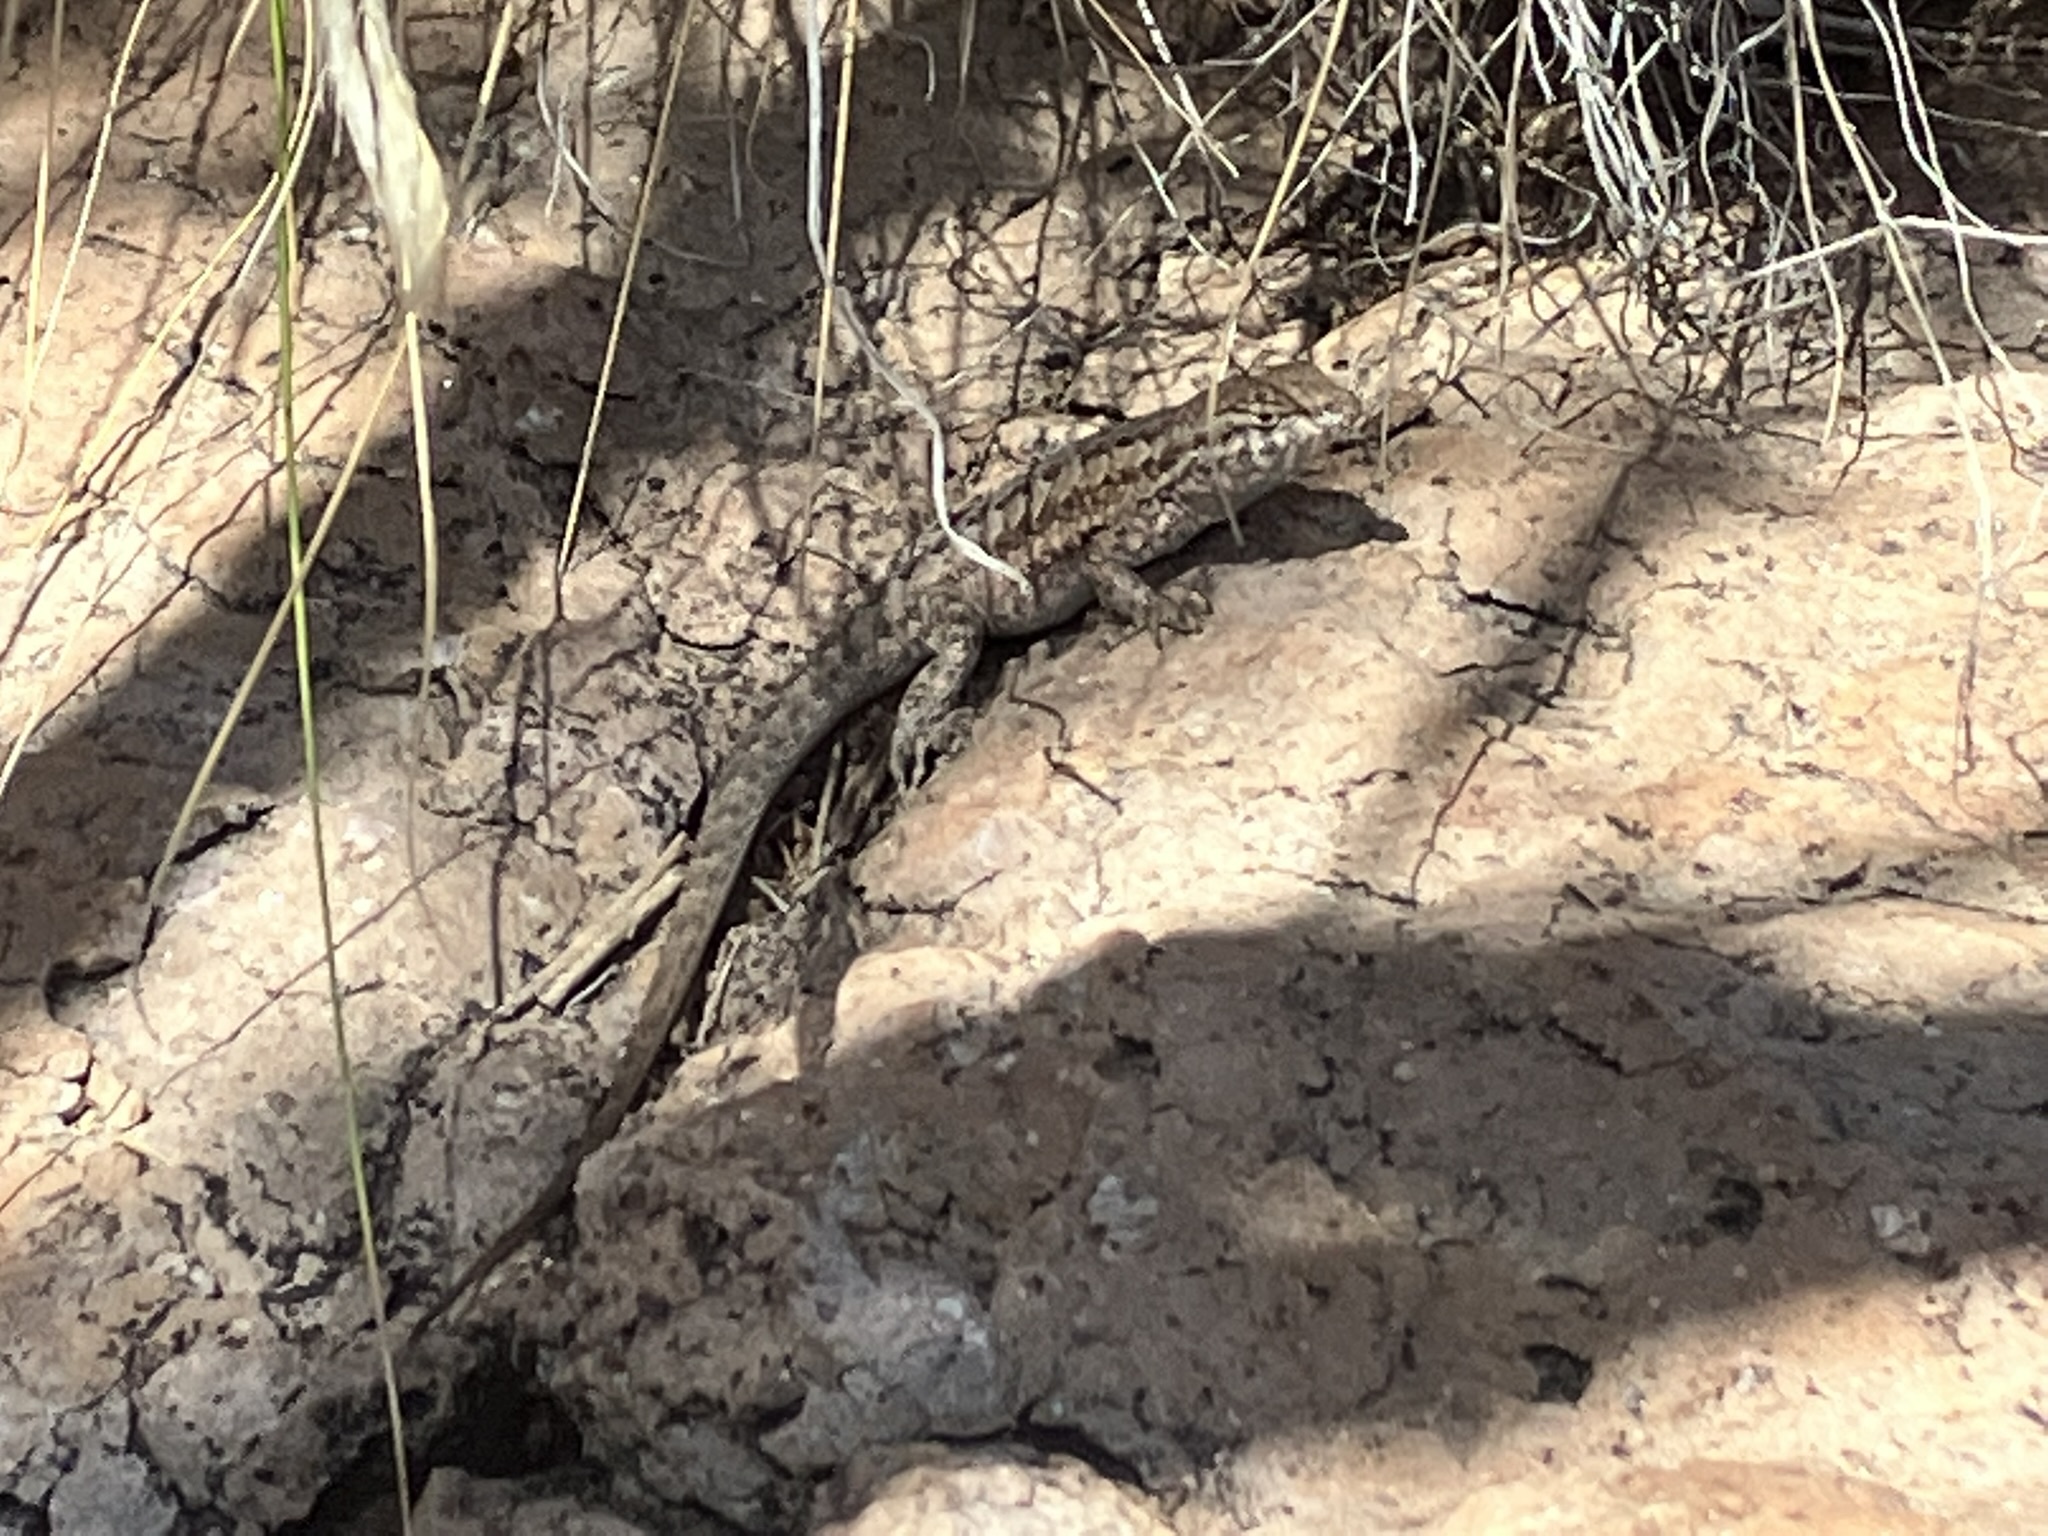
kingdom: Animalia
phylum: Chordata
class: Squamata
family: Phrynosomatidae
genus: Uta
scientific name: Uta stansburiana
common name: Side-blotched lizard
